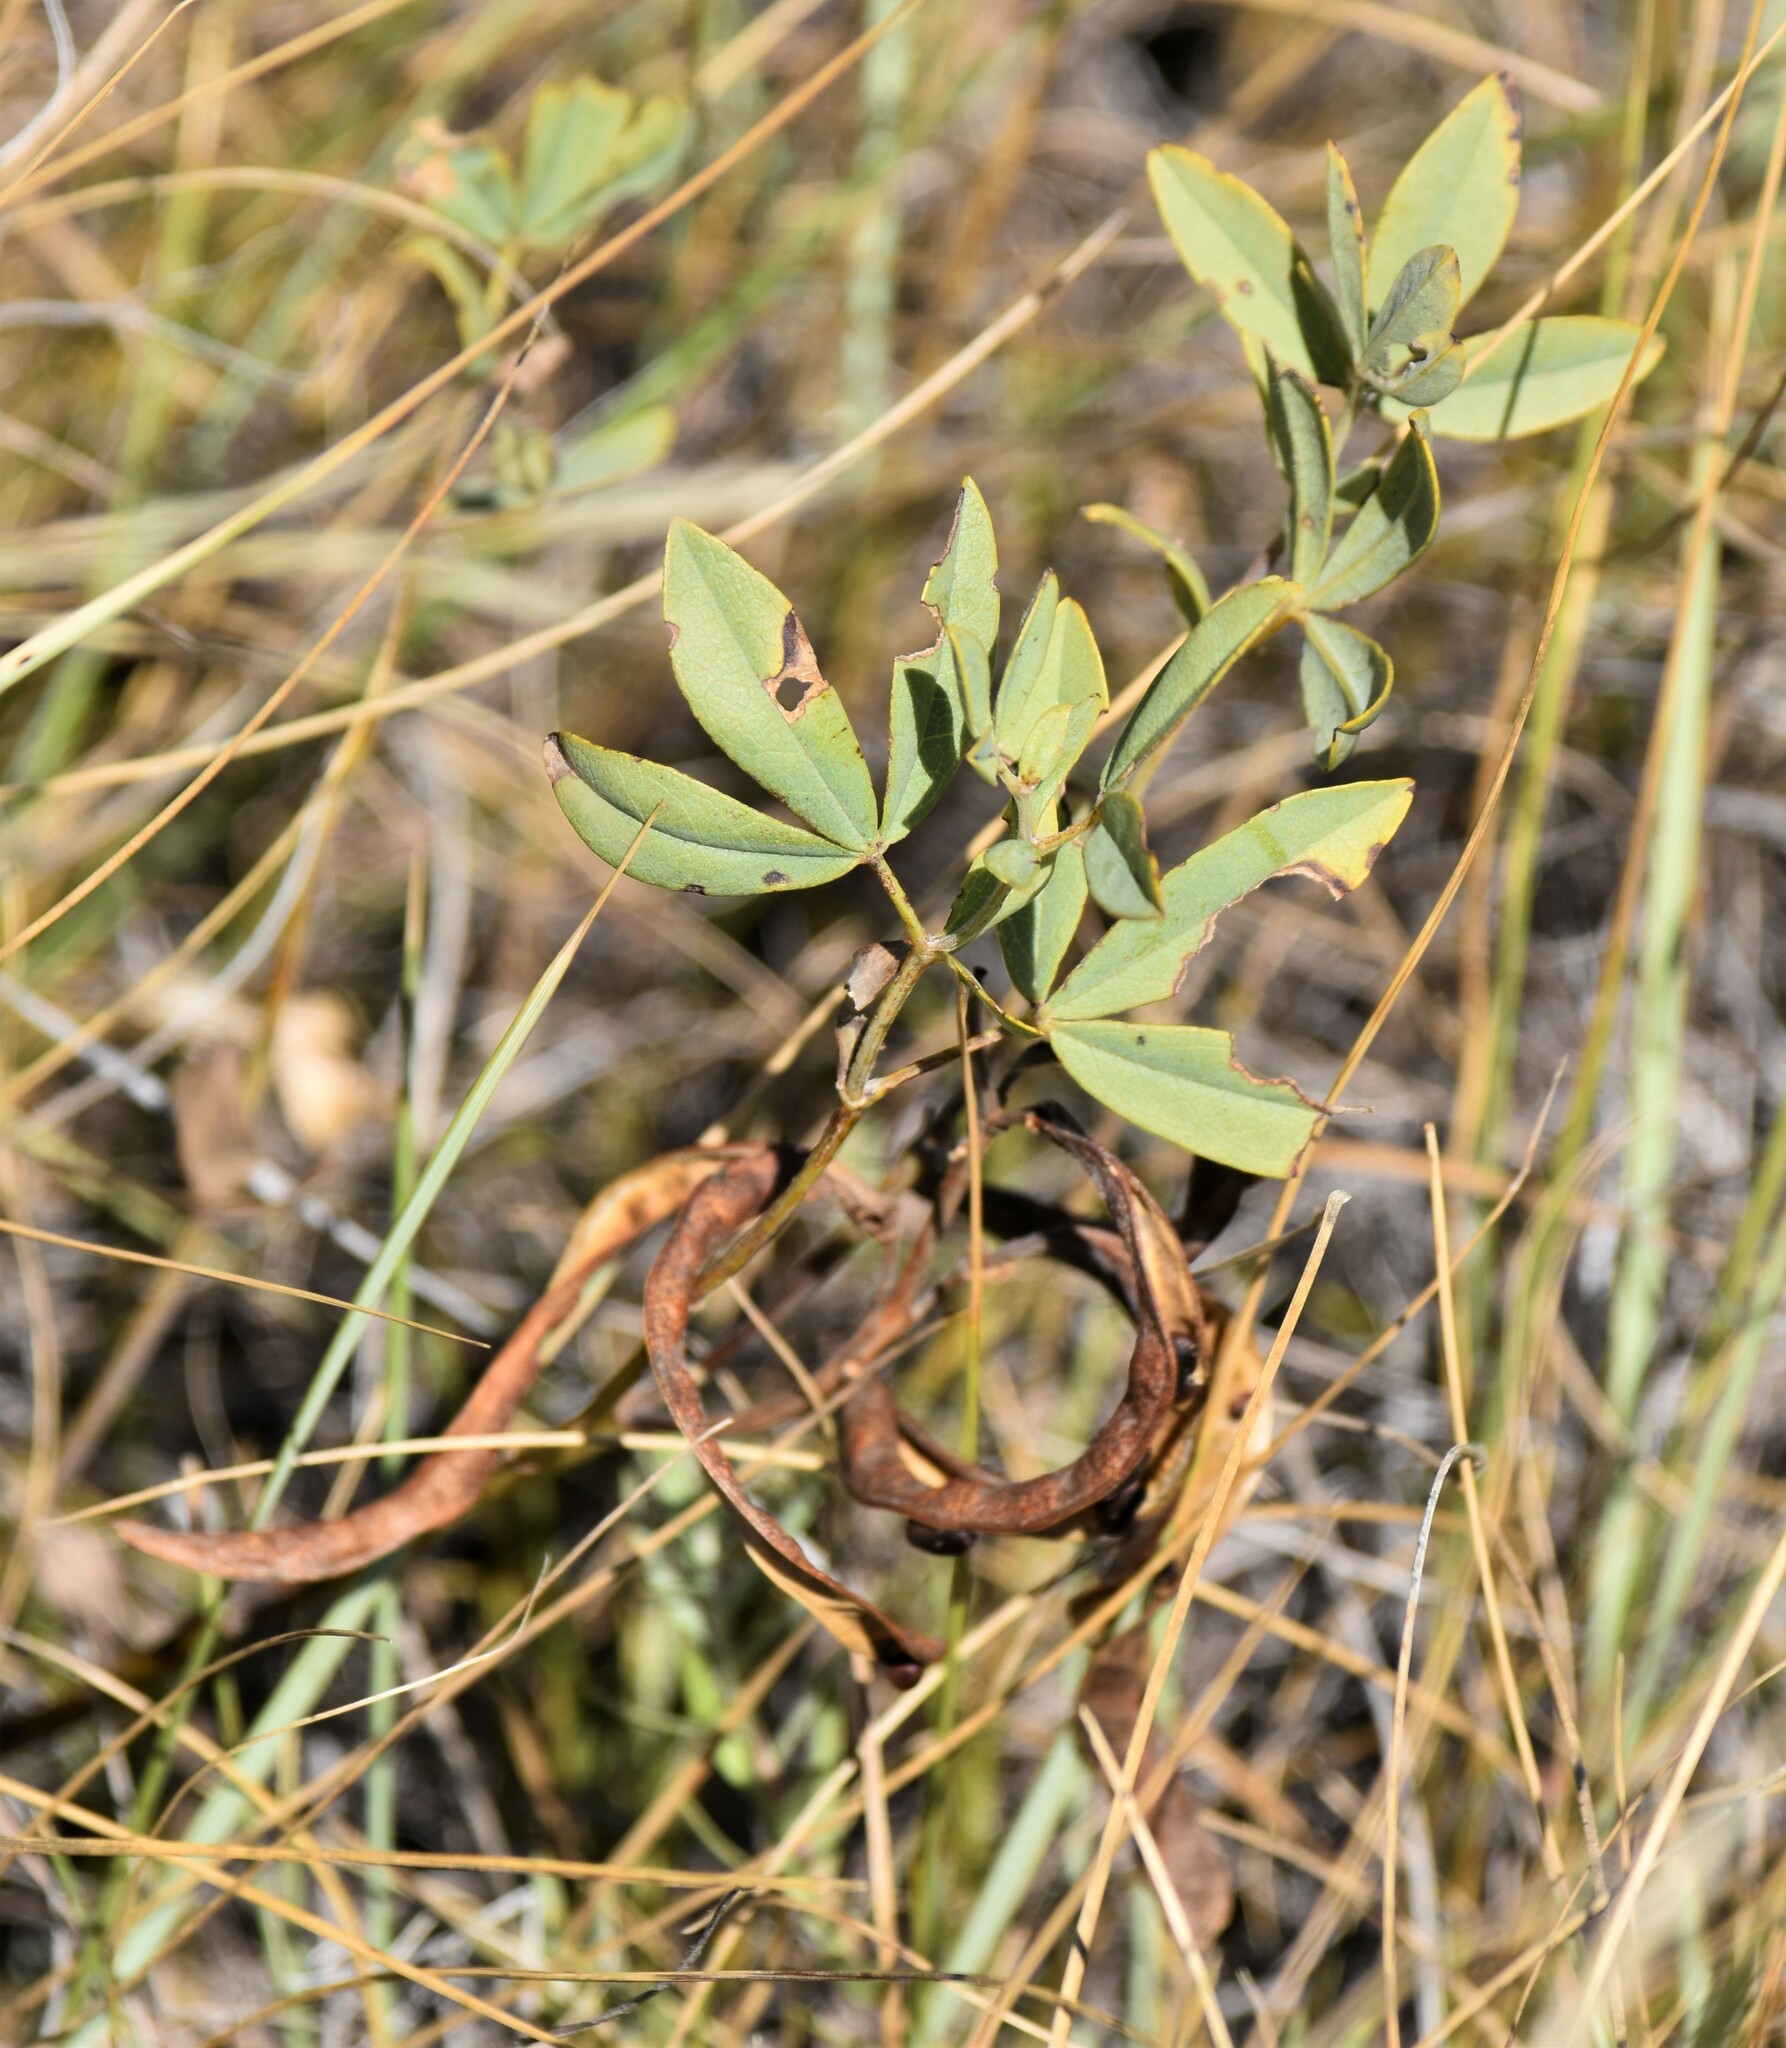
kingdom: Plantae
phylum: Tracheophyta
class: Magnoliopsida
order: Fabales
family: Fabaceae
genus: Thermopsis
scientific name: Thermopsis rhombifolia
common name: Circle-pod-pea
